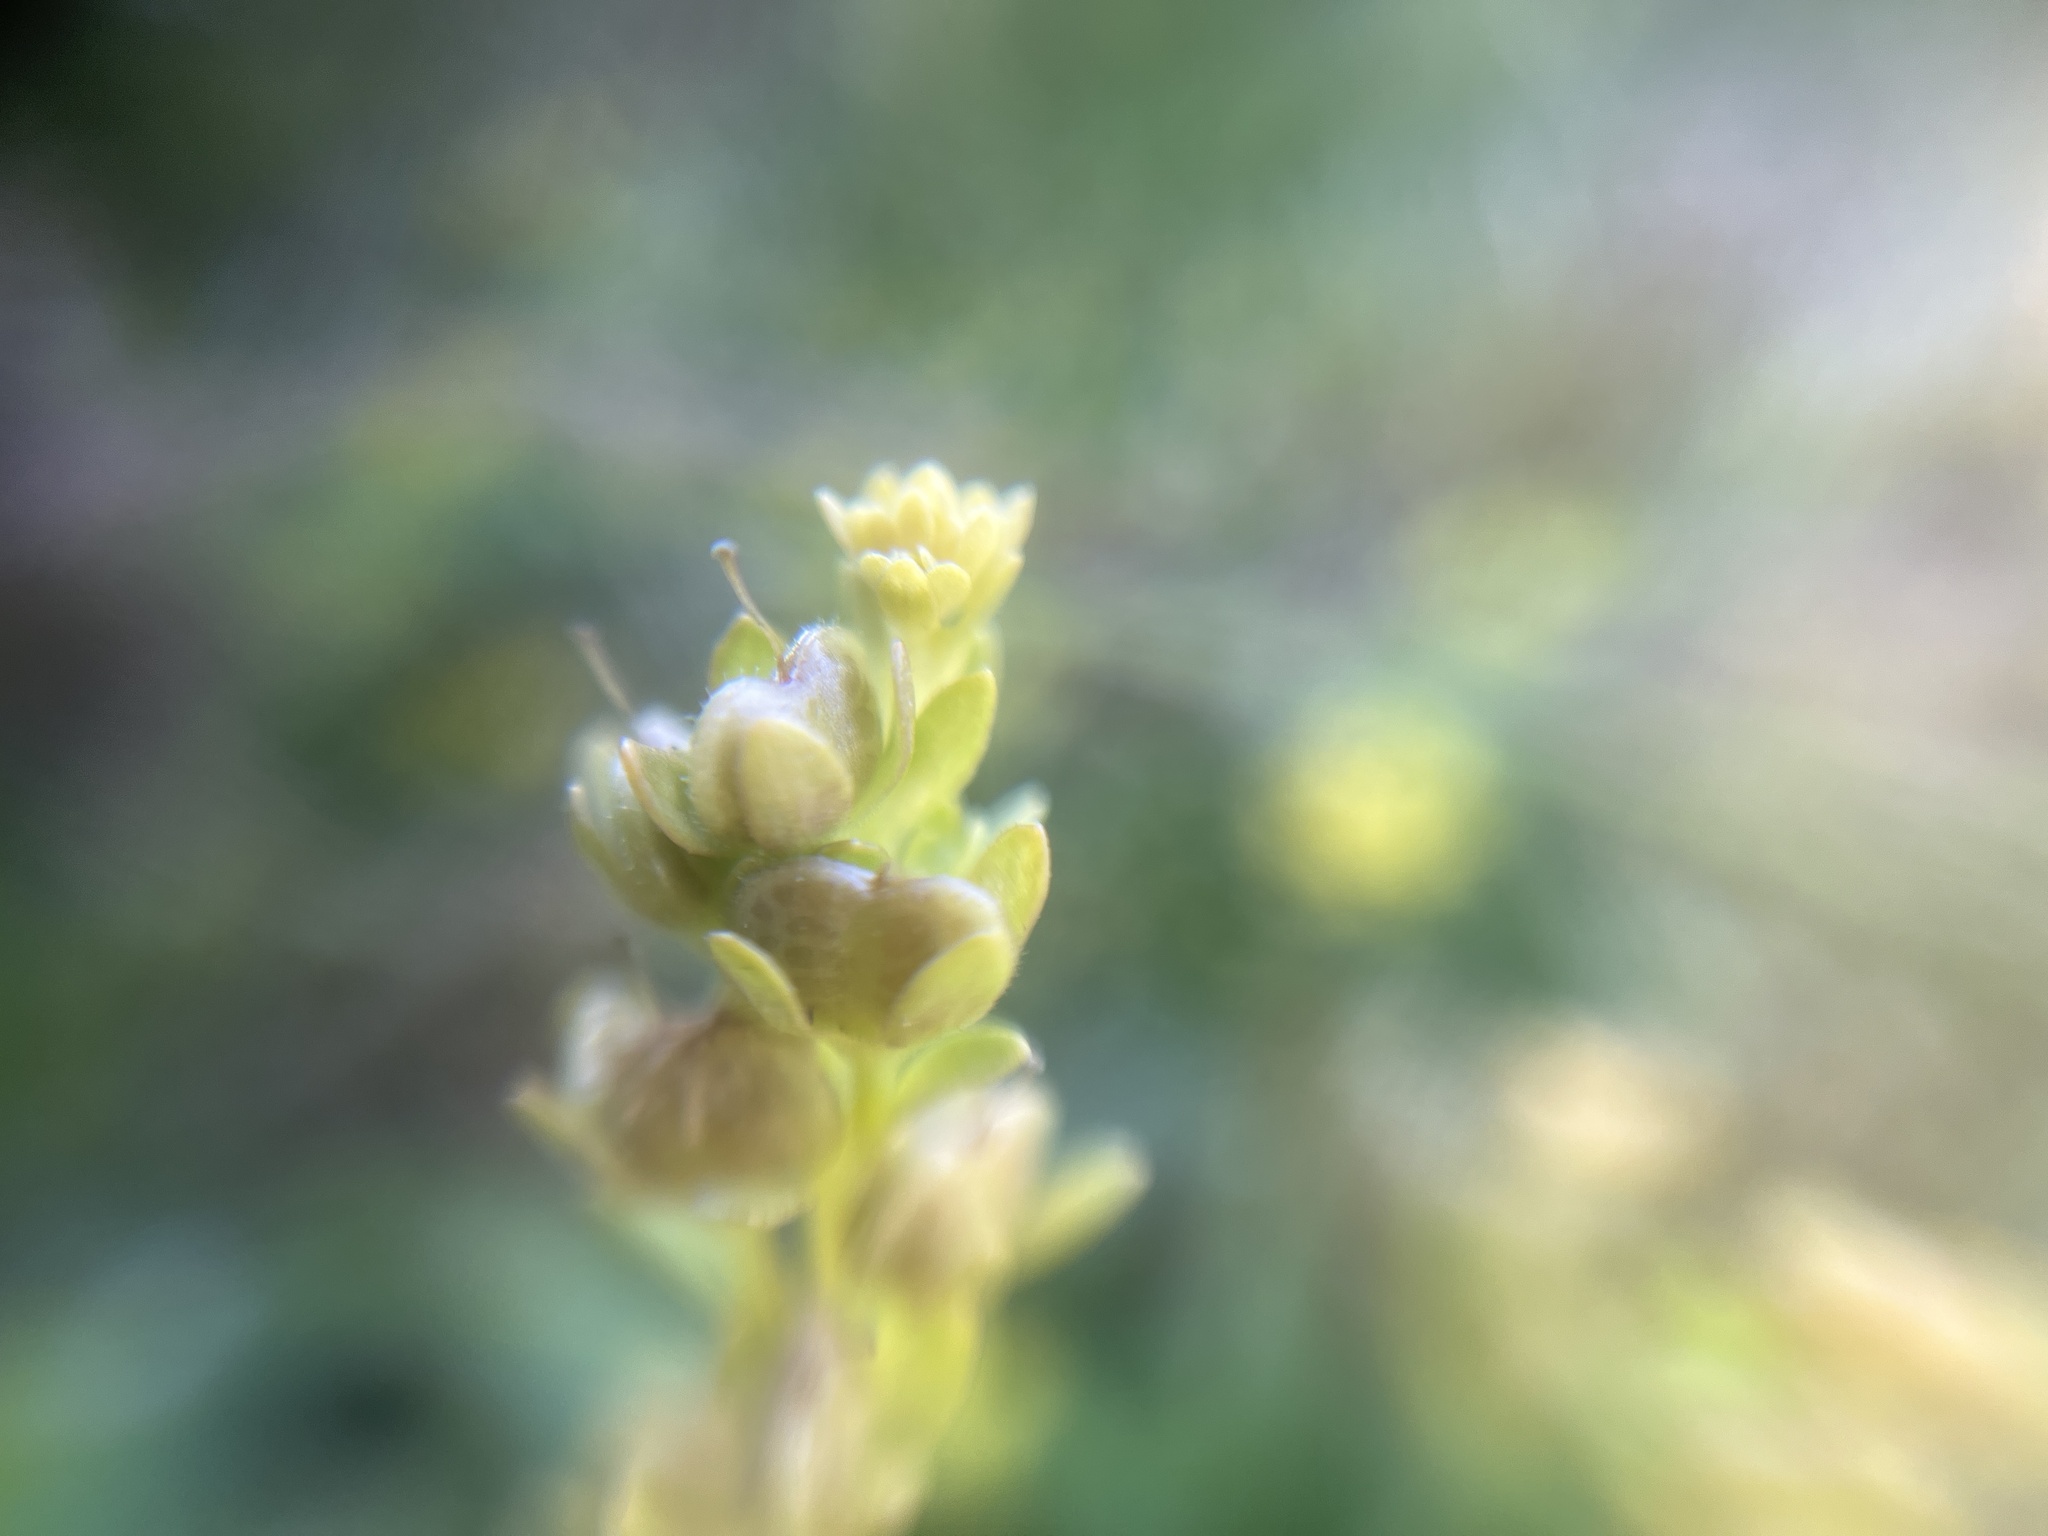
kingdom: Plantae
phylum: Tracheophyta
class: Magnoliopsida
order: Lamiales
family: Plantaginaceae
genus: Veronica
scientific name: Veronica serpyllifolia
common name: Thyme-leaved speedwell
